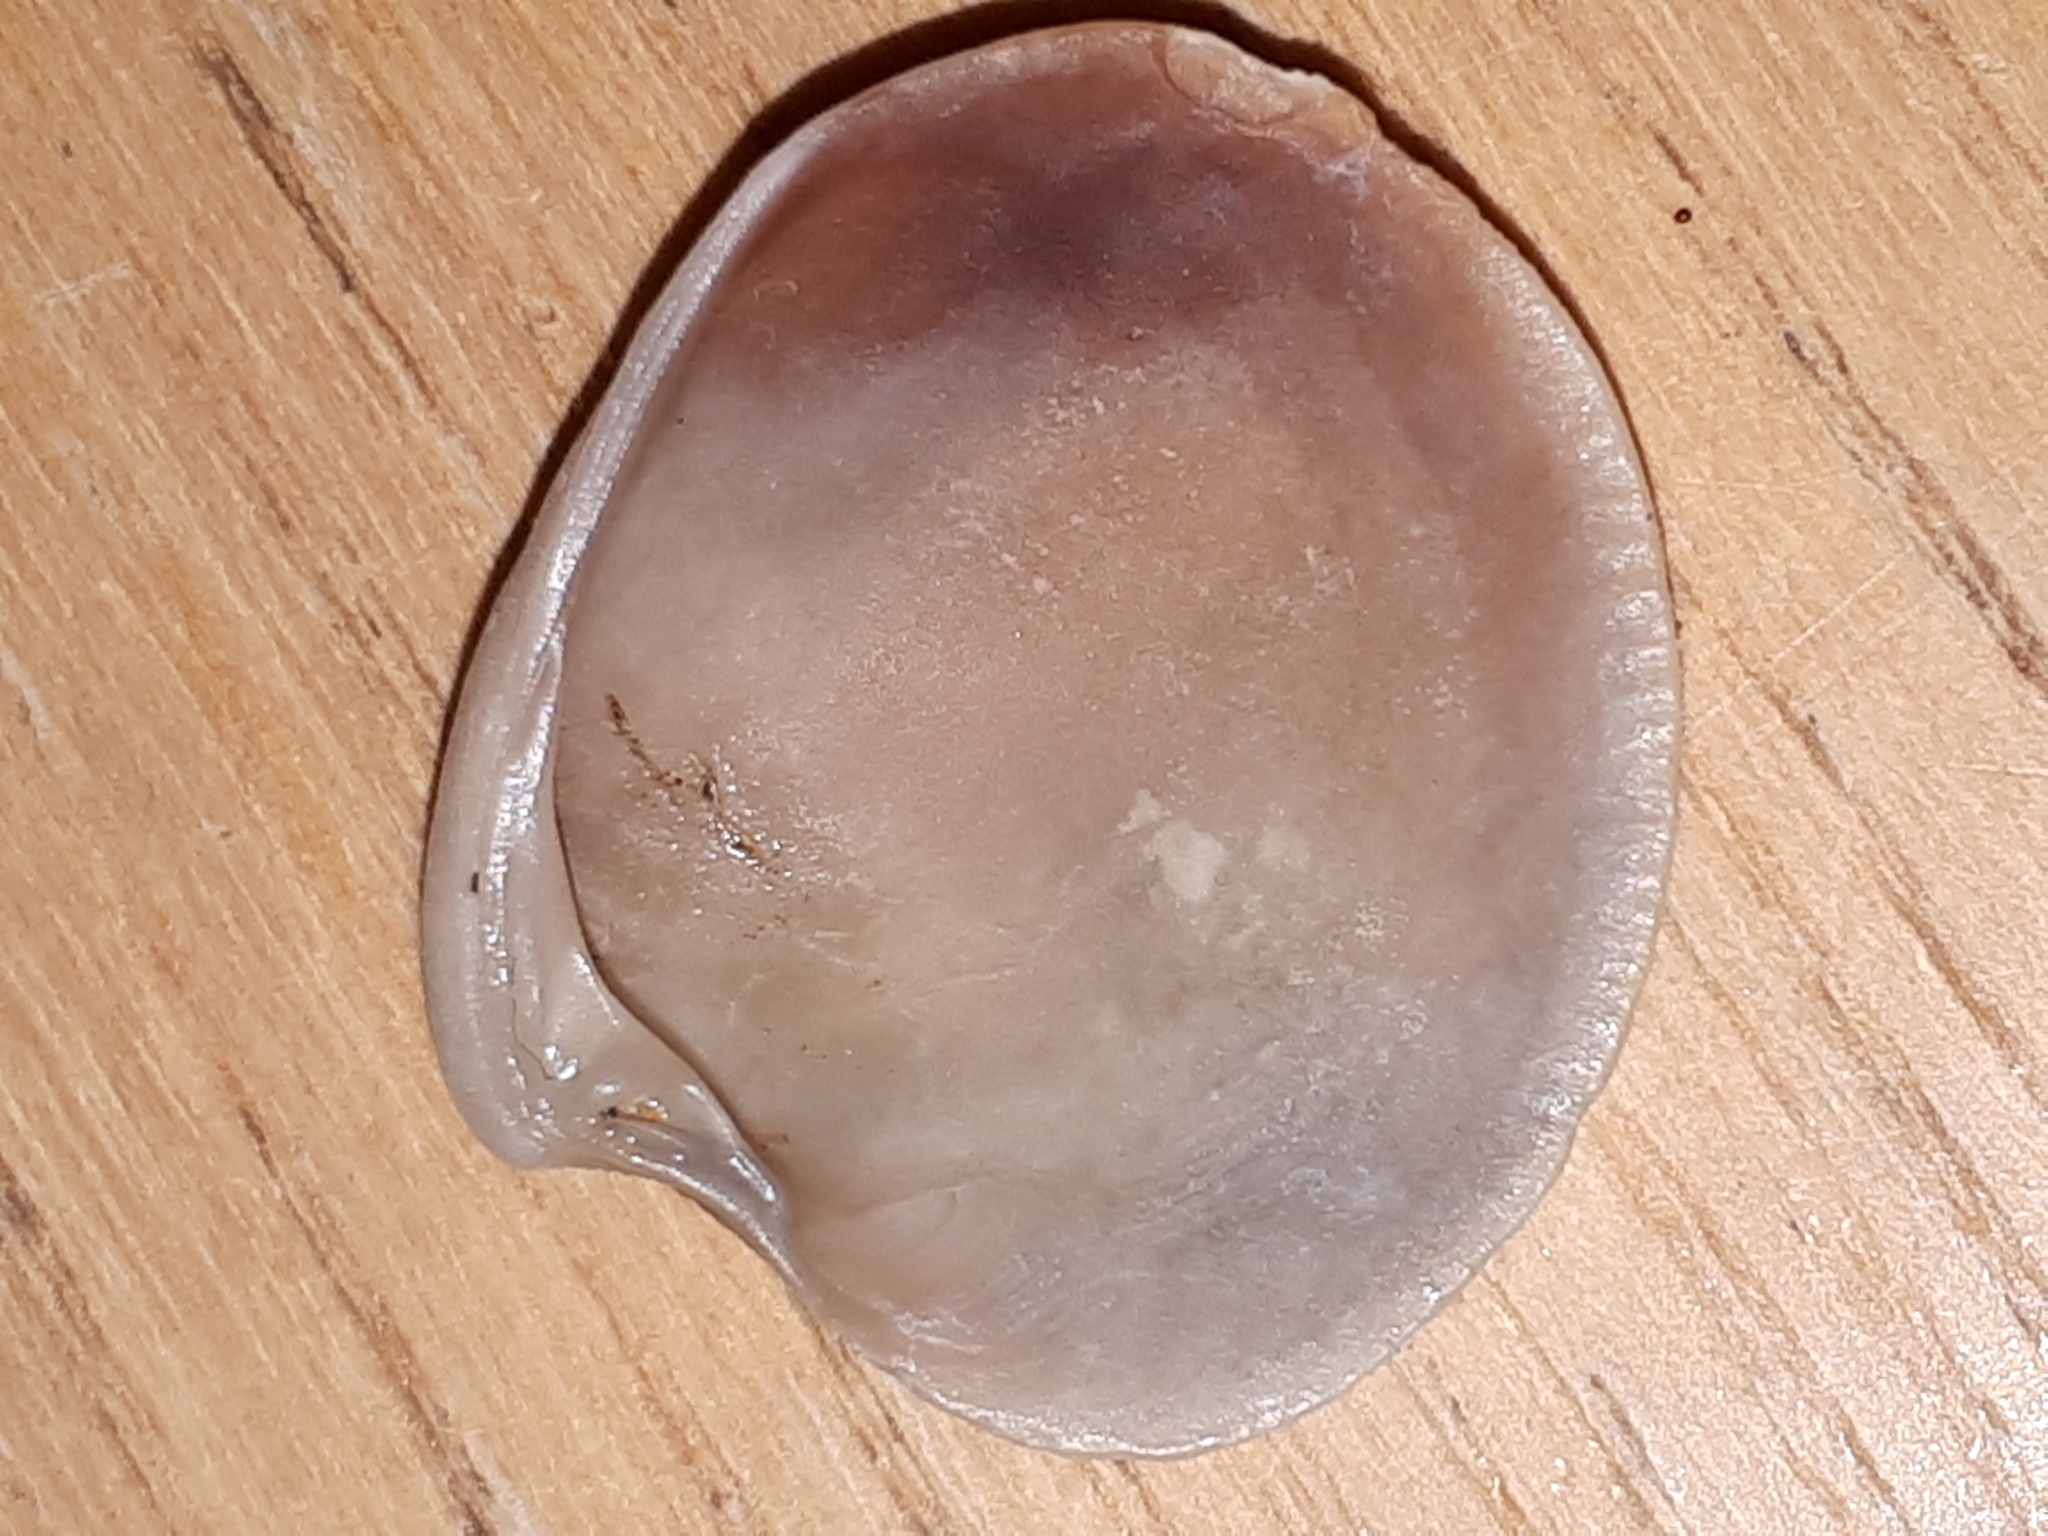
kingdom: Animalia
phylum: Mollusca
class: Bivalvia
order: Venerida
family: Veneridae
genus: Chamelea
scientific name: Chamelea gallina
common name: Chicken venus
